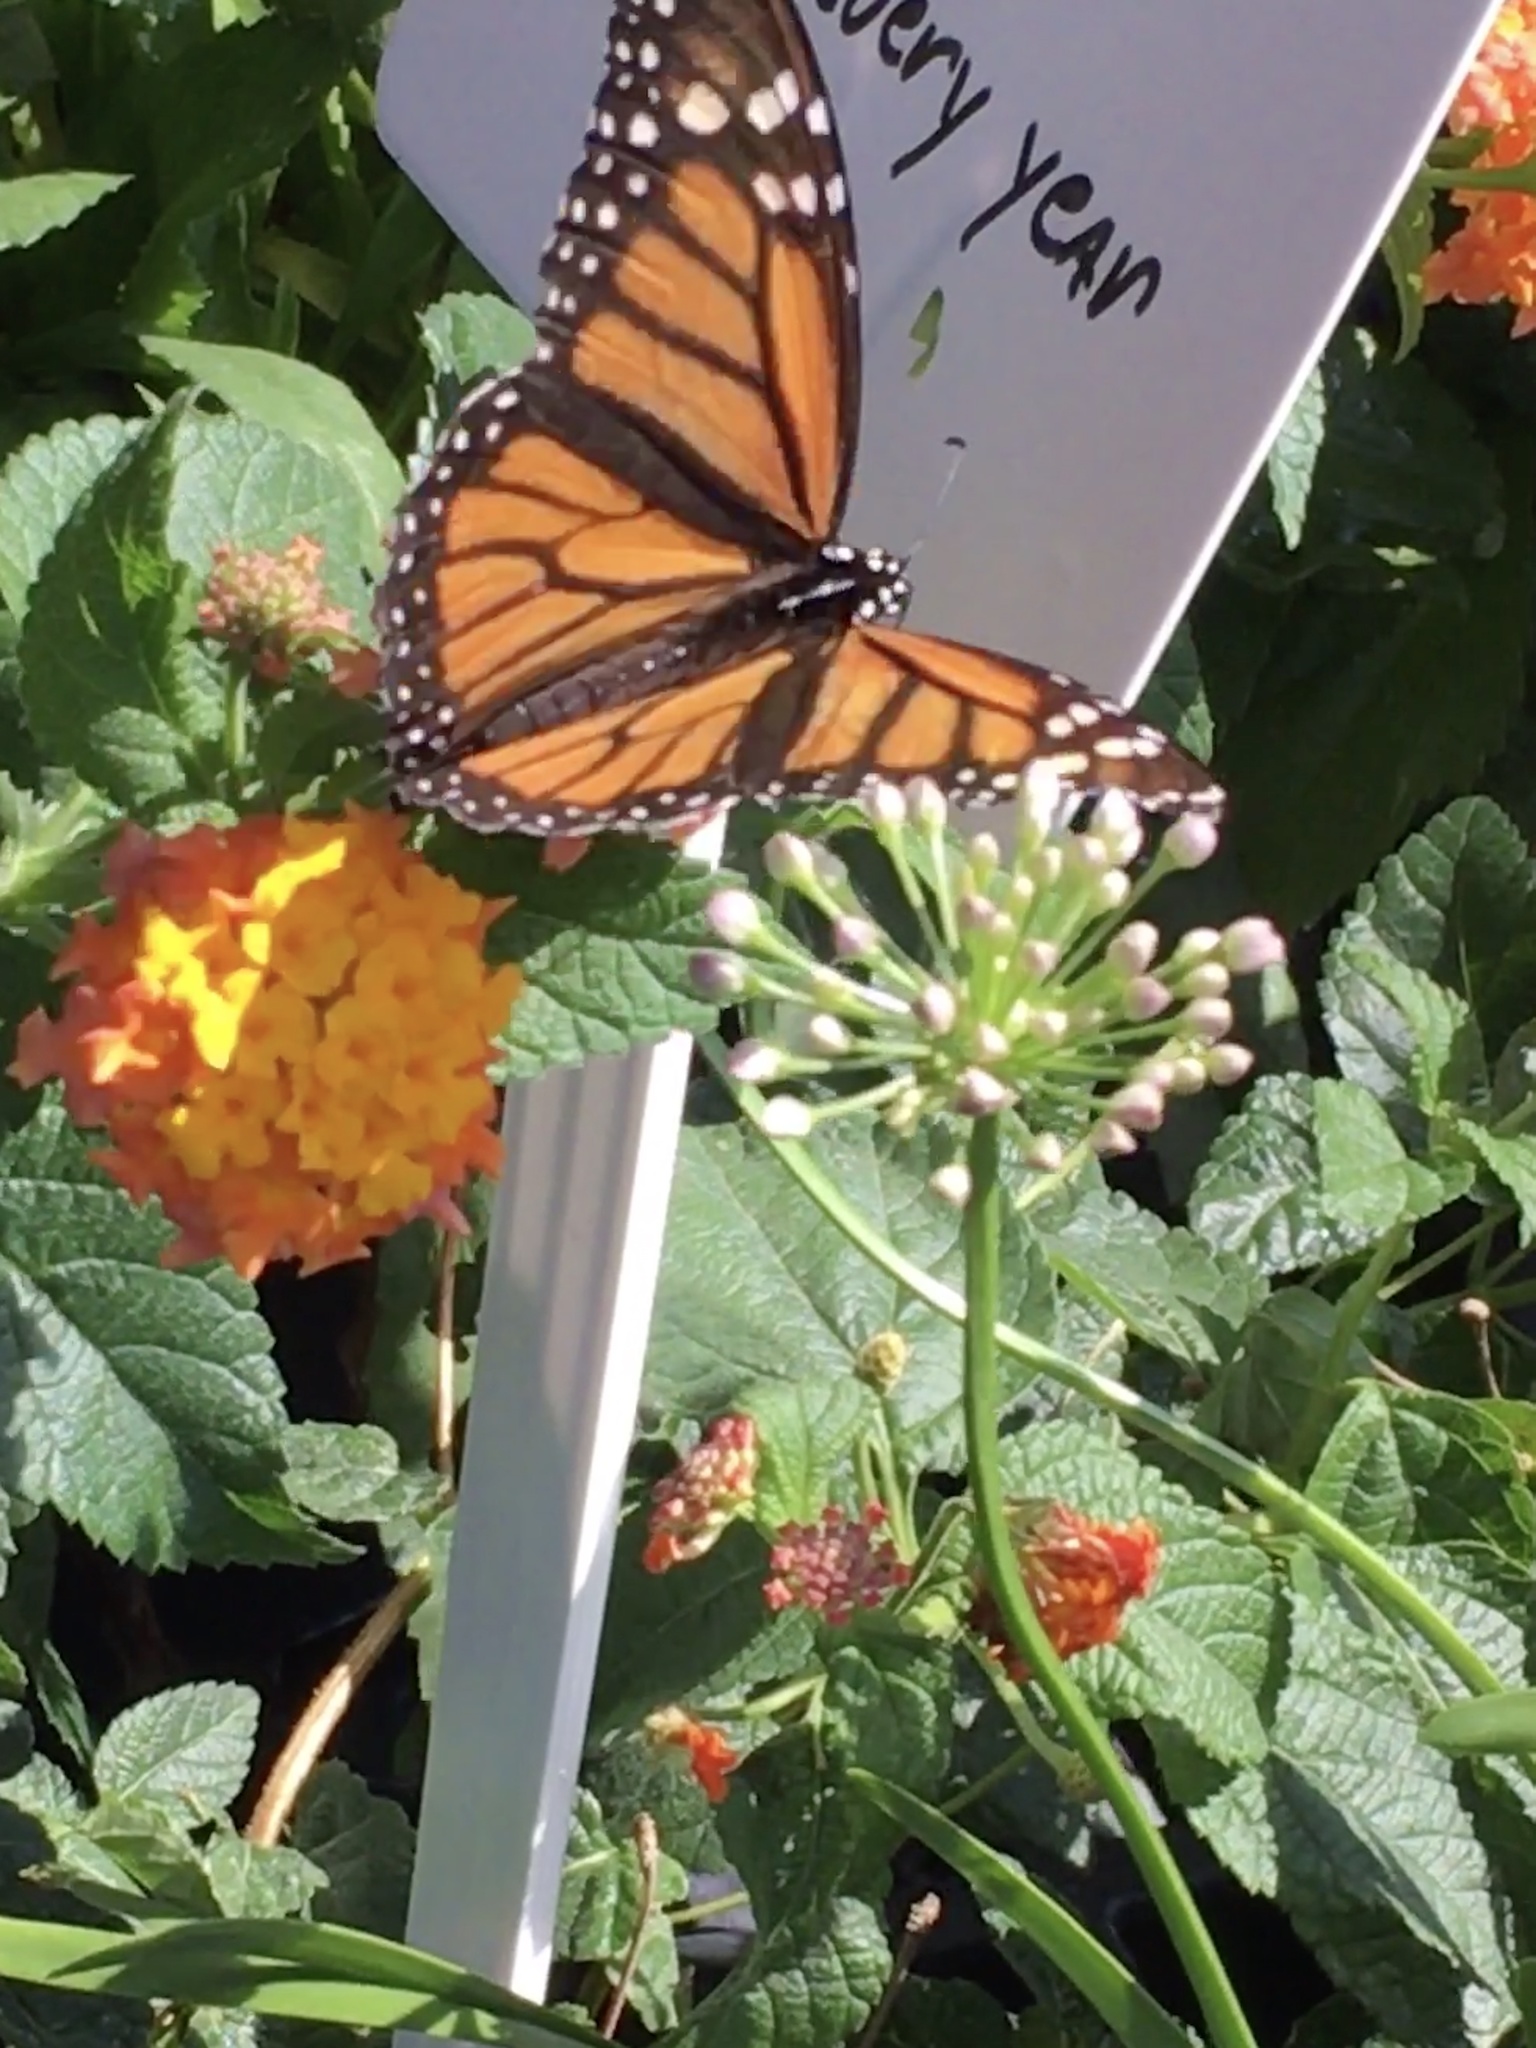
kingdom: Animalia
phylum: Arthropoda
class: Insecta
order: Lepidoptera
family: Nymphalidae
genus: Danaus
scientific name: Danaus plexippus
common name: Monarch
